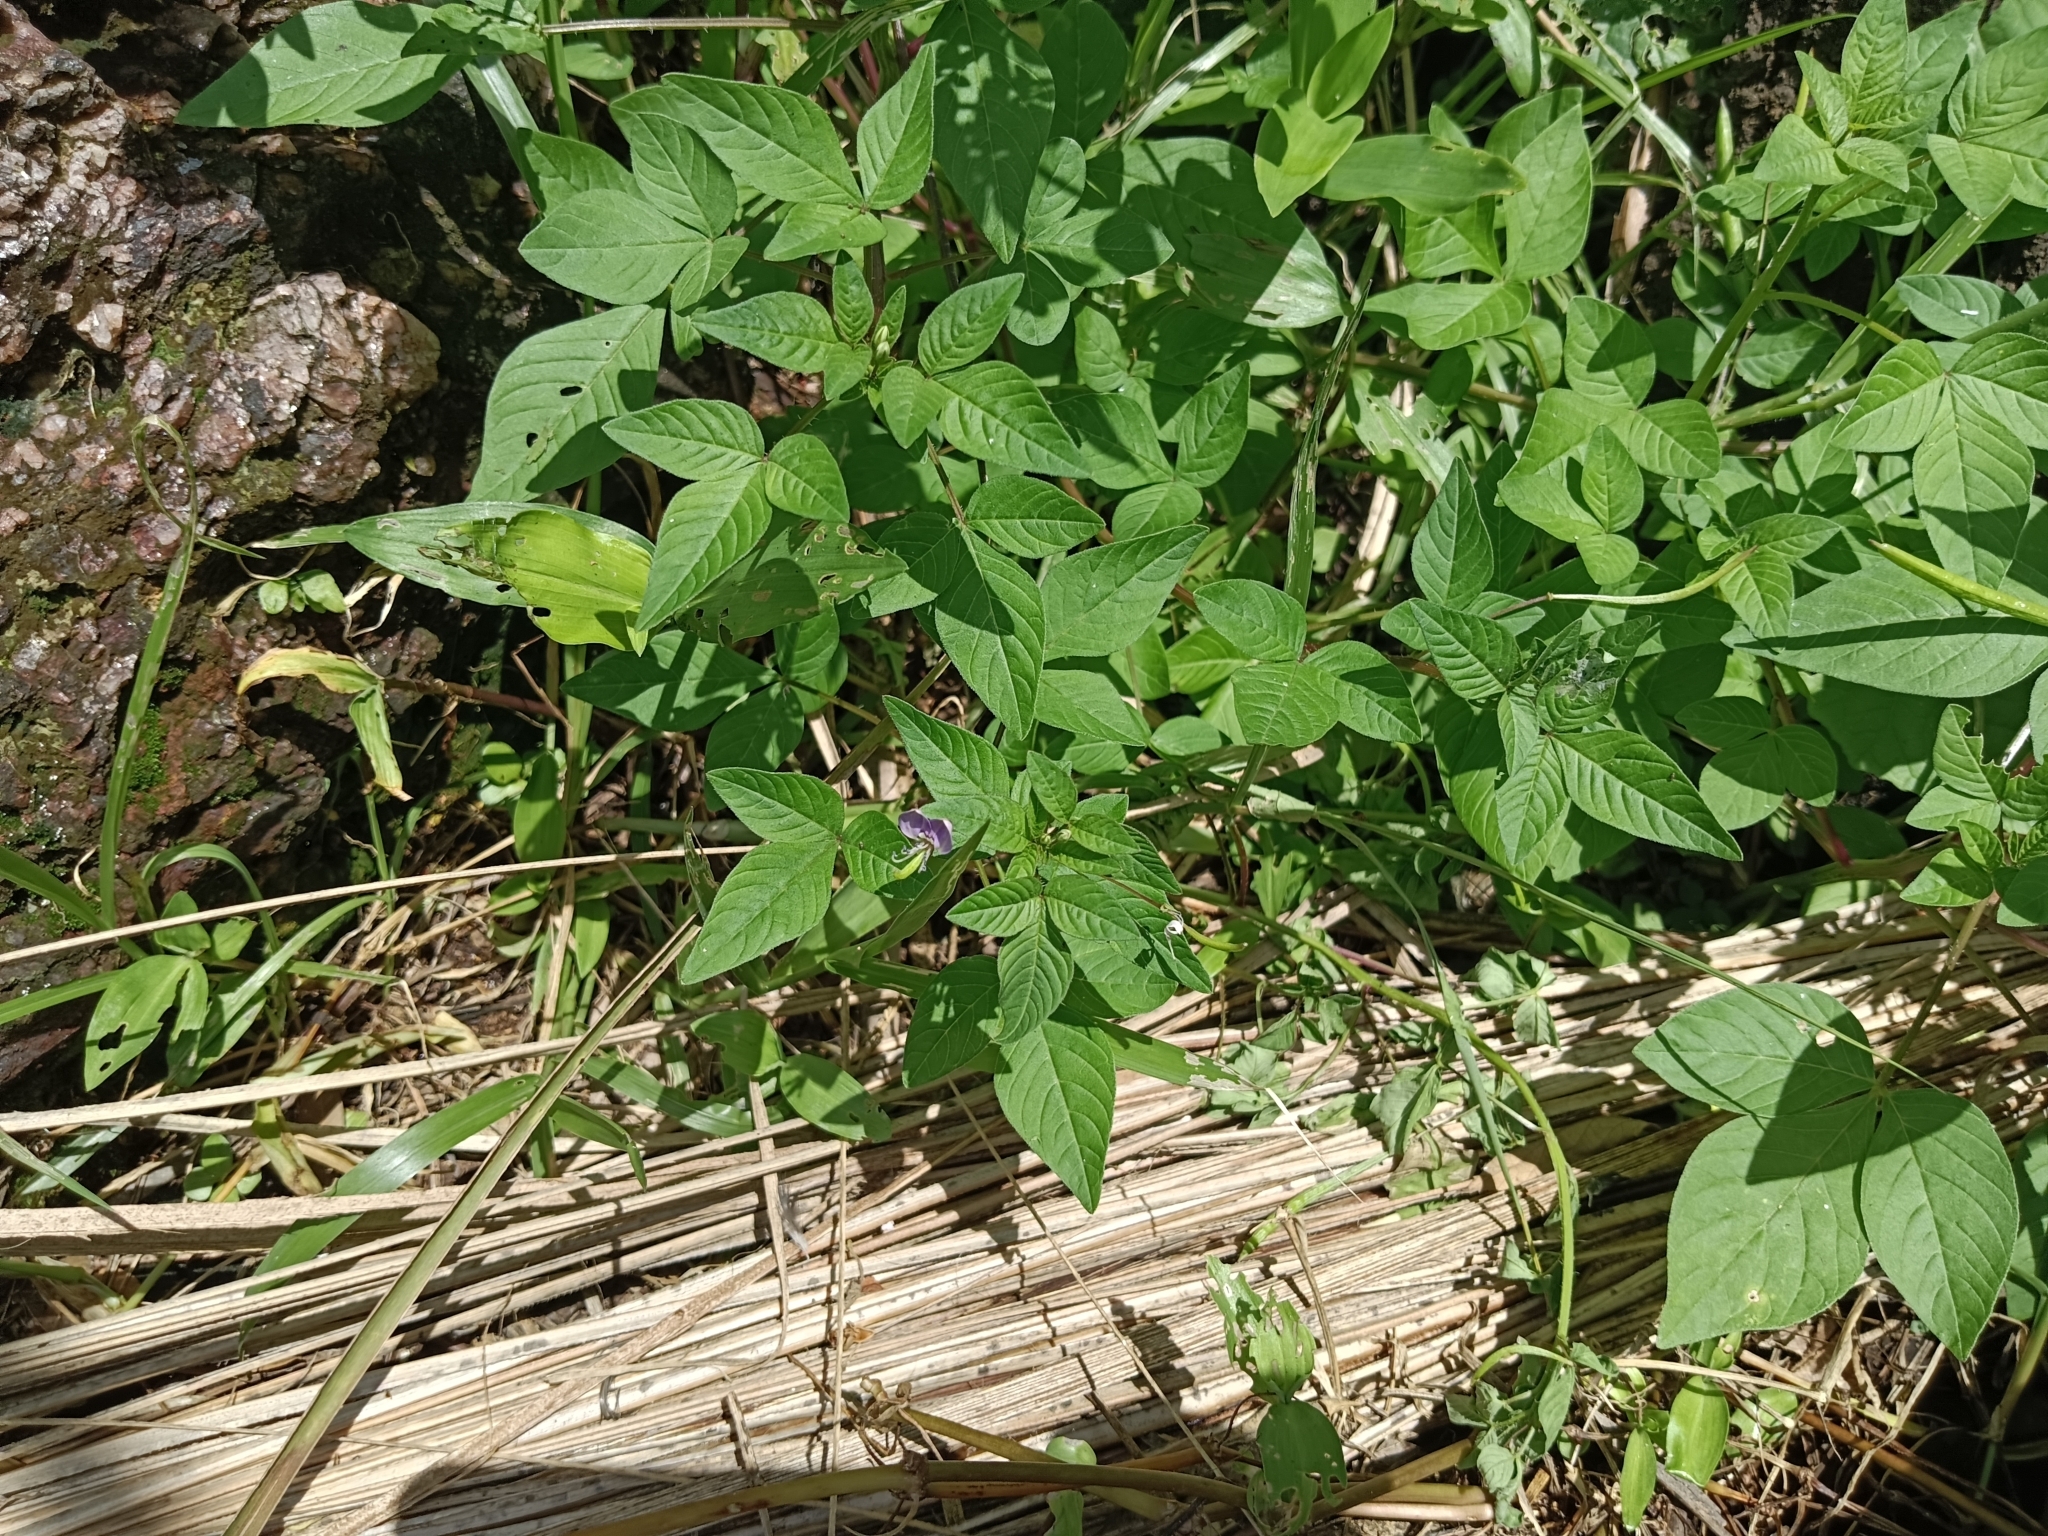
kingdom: Plantae
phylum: Tracheophyta
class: Magnoliopsida
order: Brassicales
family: Cleomaceae
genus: Sieruela
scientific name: Sieruela rutidosperma
